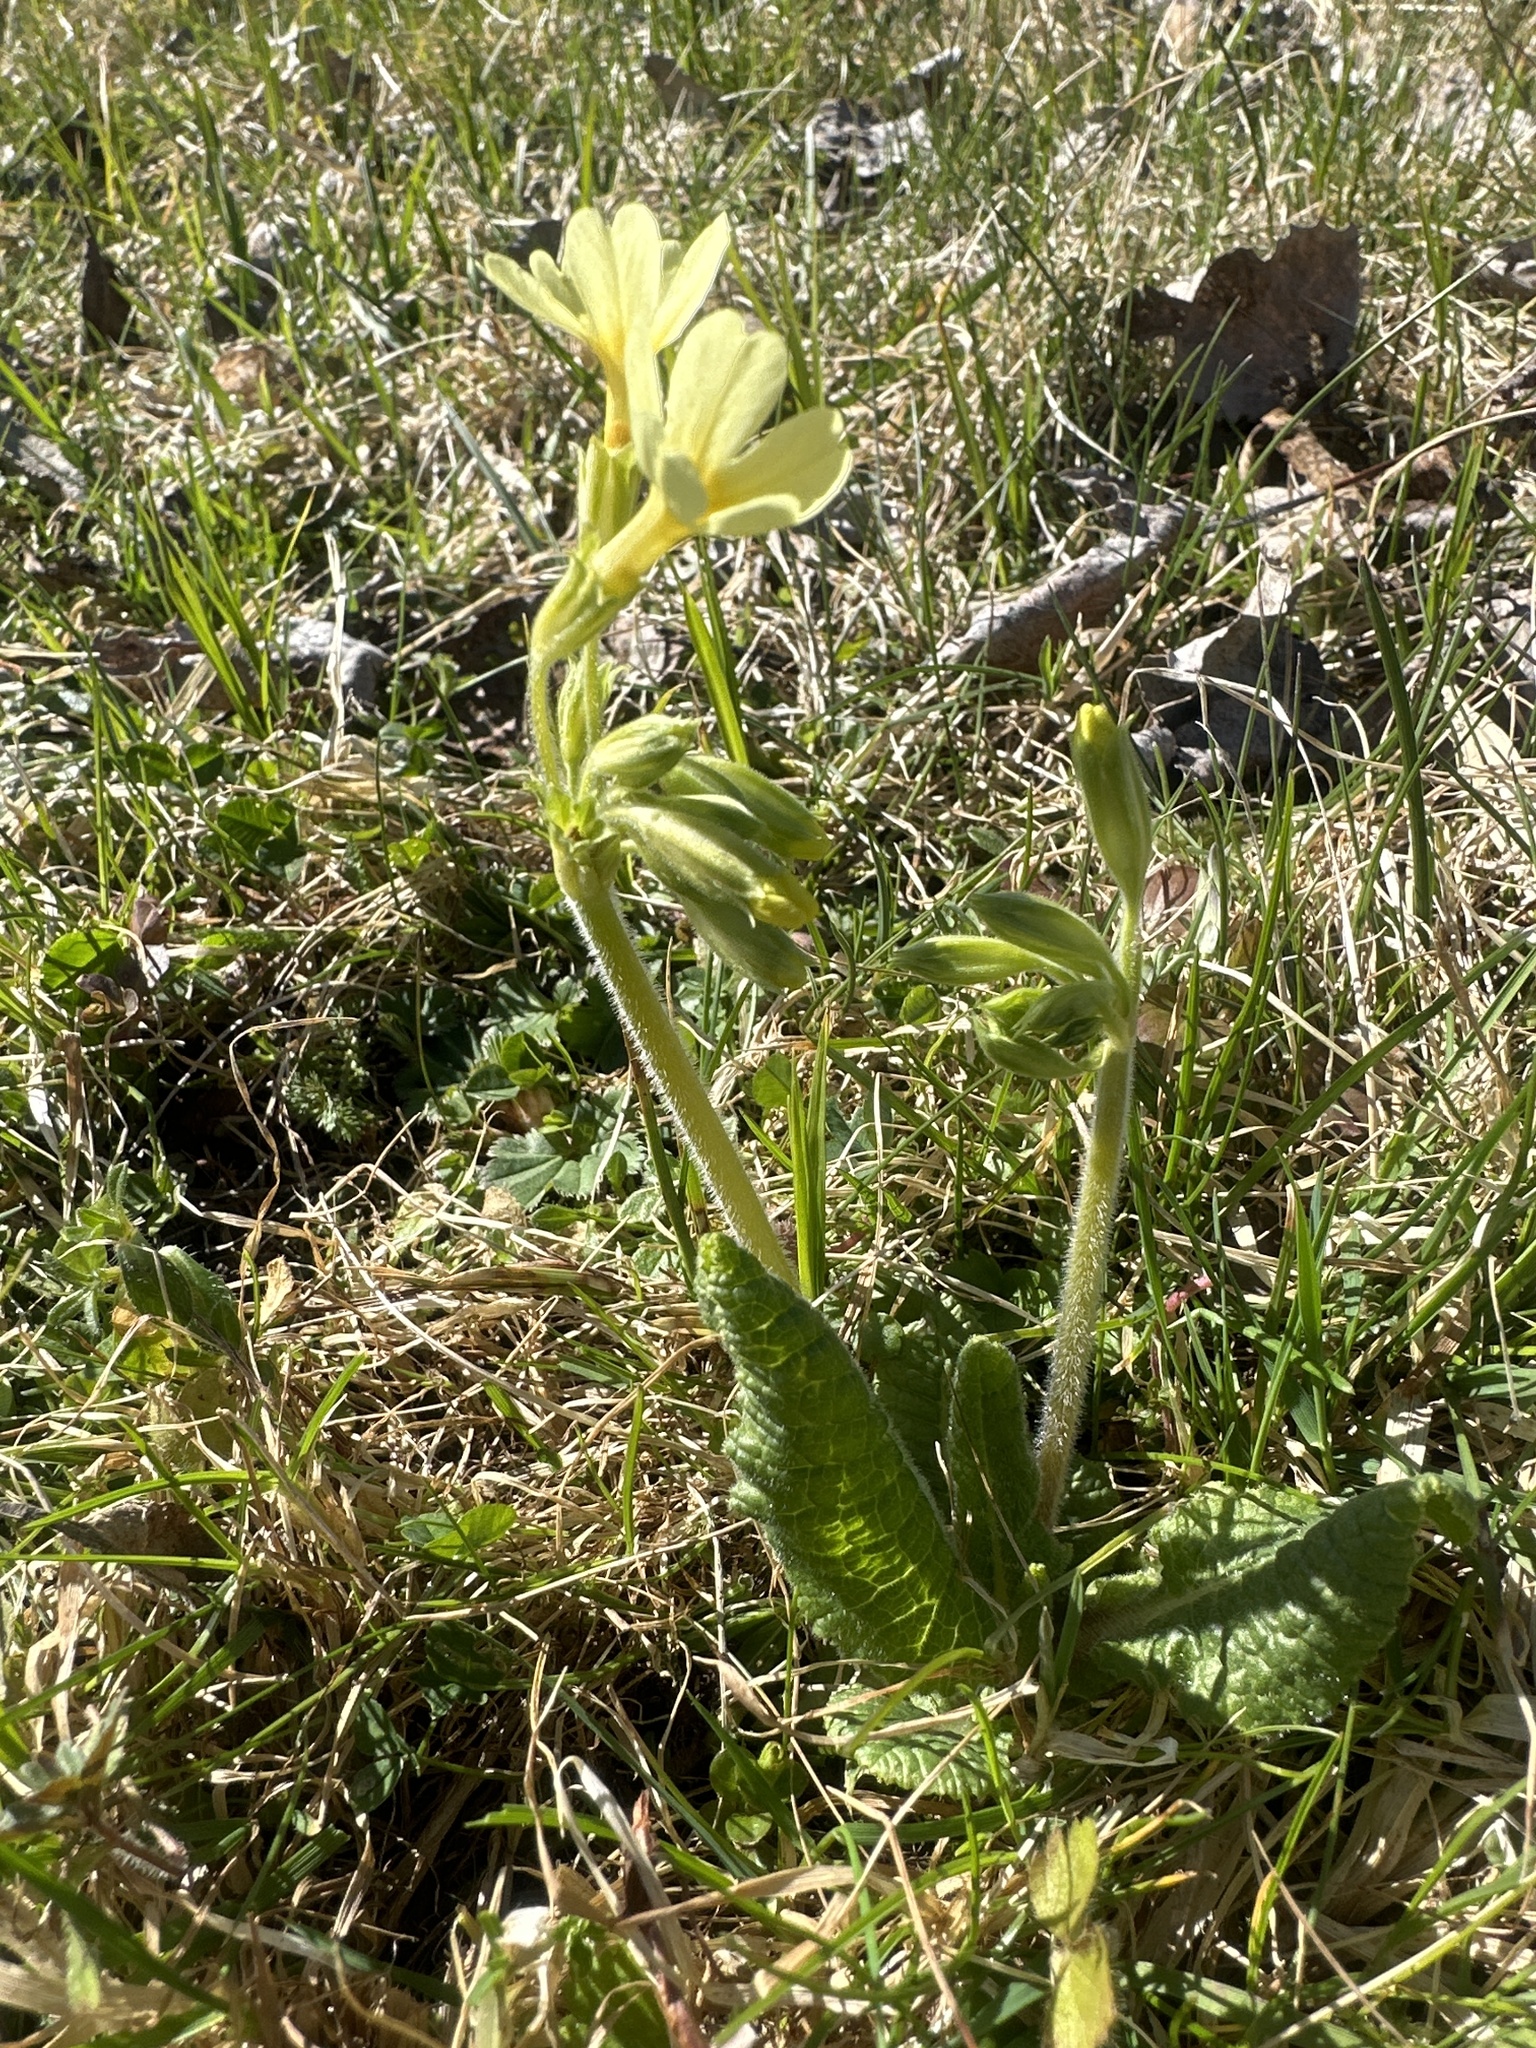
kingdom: Plantae
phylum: Tracheophyta
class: Magnoliopsida
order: Ericales
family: Primulaceae
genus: Primula
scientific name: Primula elatior
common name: Oxlip
